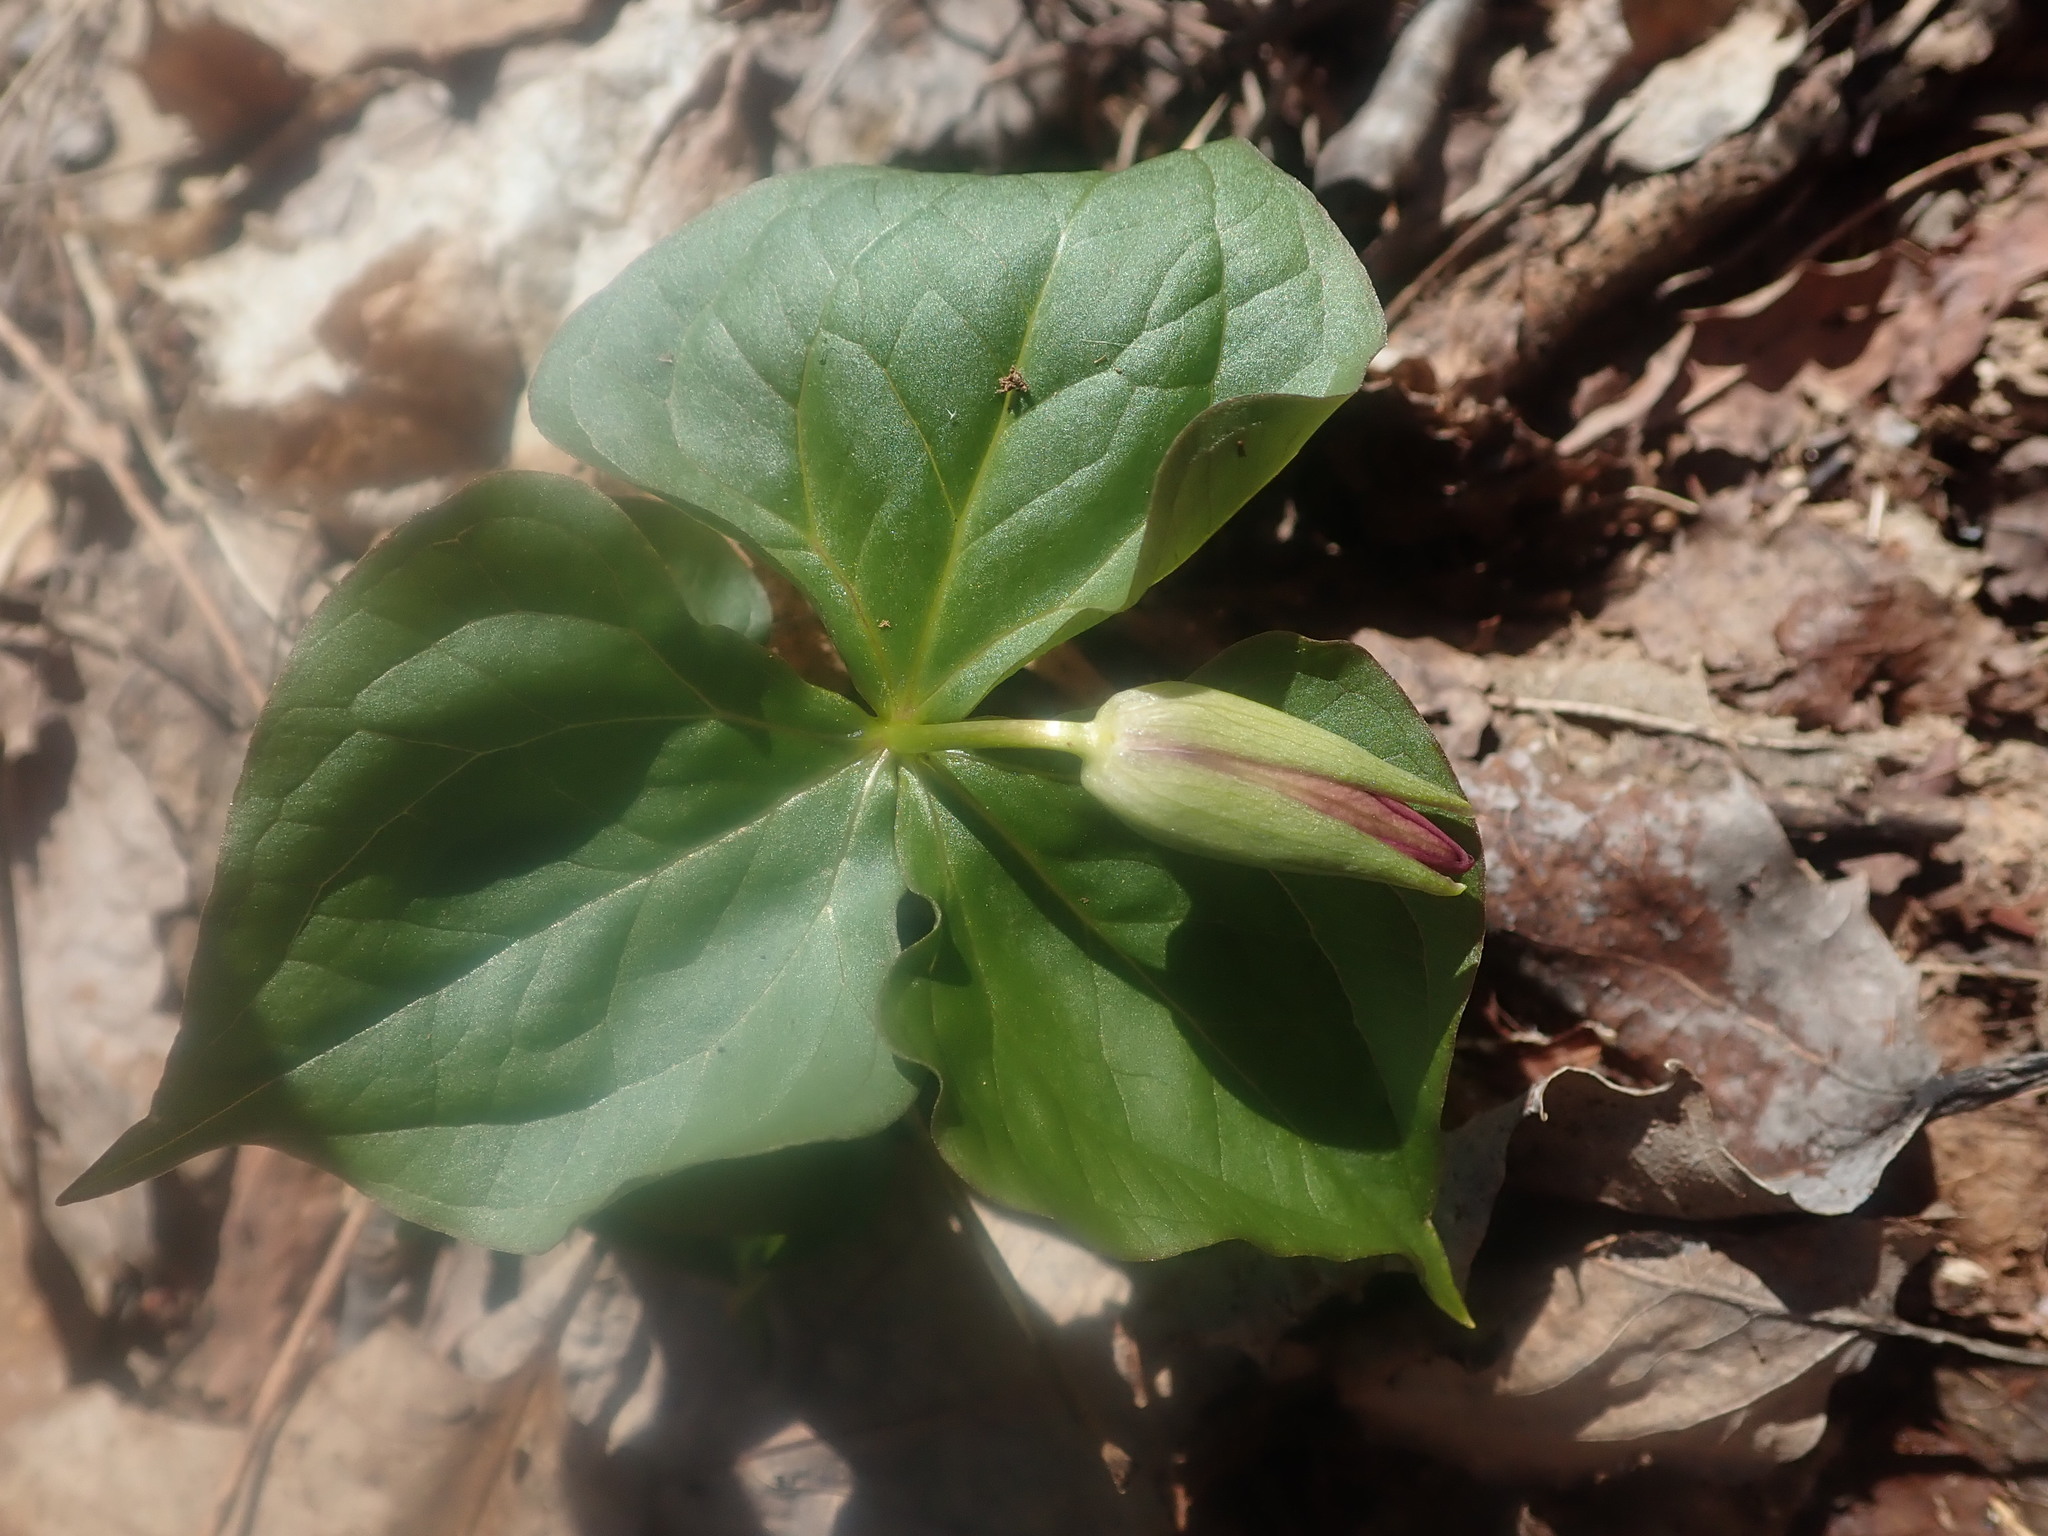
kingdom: Plantae
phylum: Tracheophyta
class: Liliopsida
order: Liliales
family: Melanthiaceae
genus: Trillium
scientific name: Trillium erectum
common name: Purple trillium
